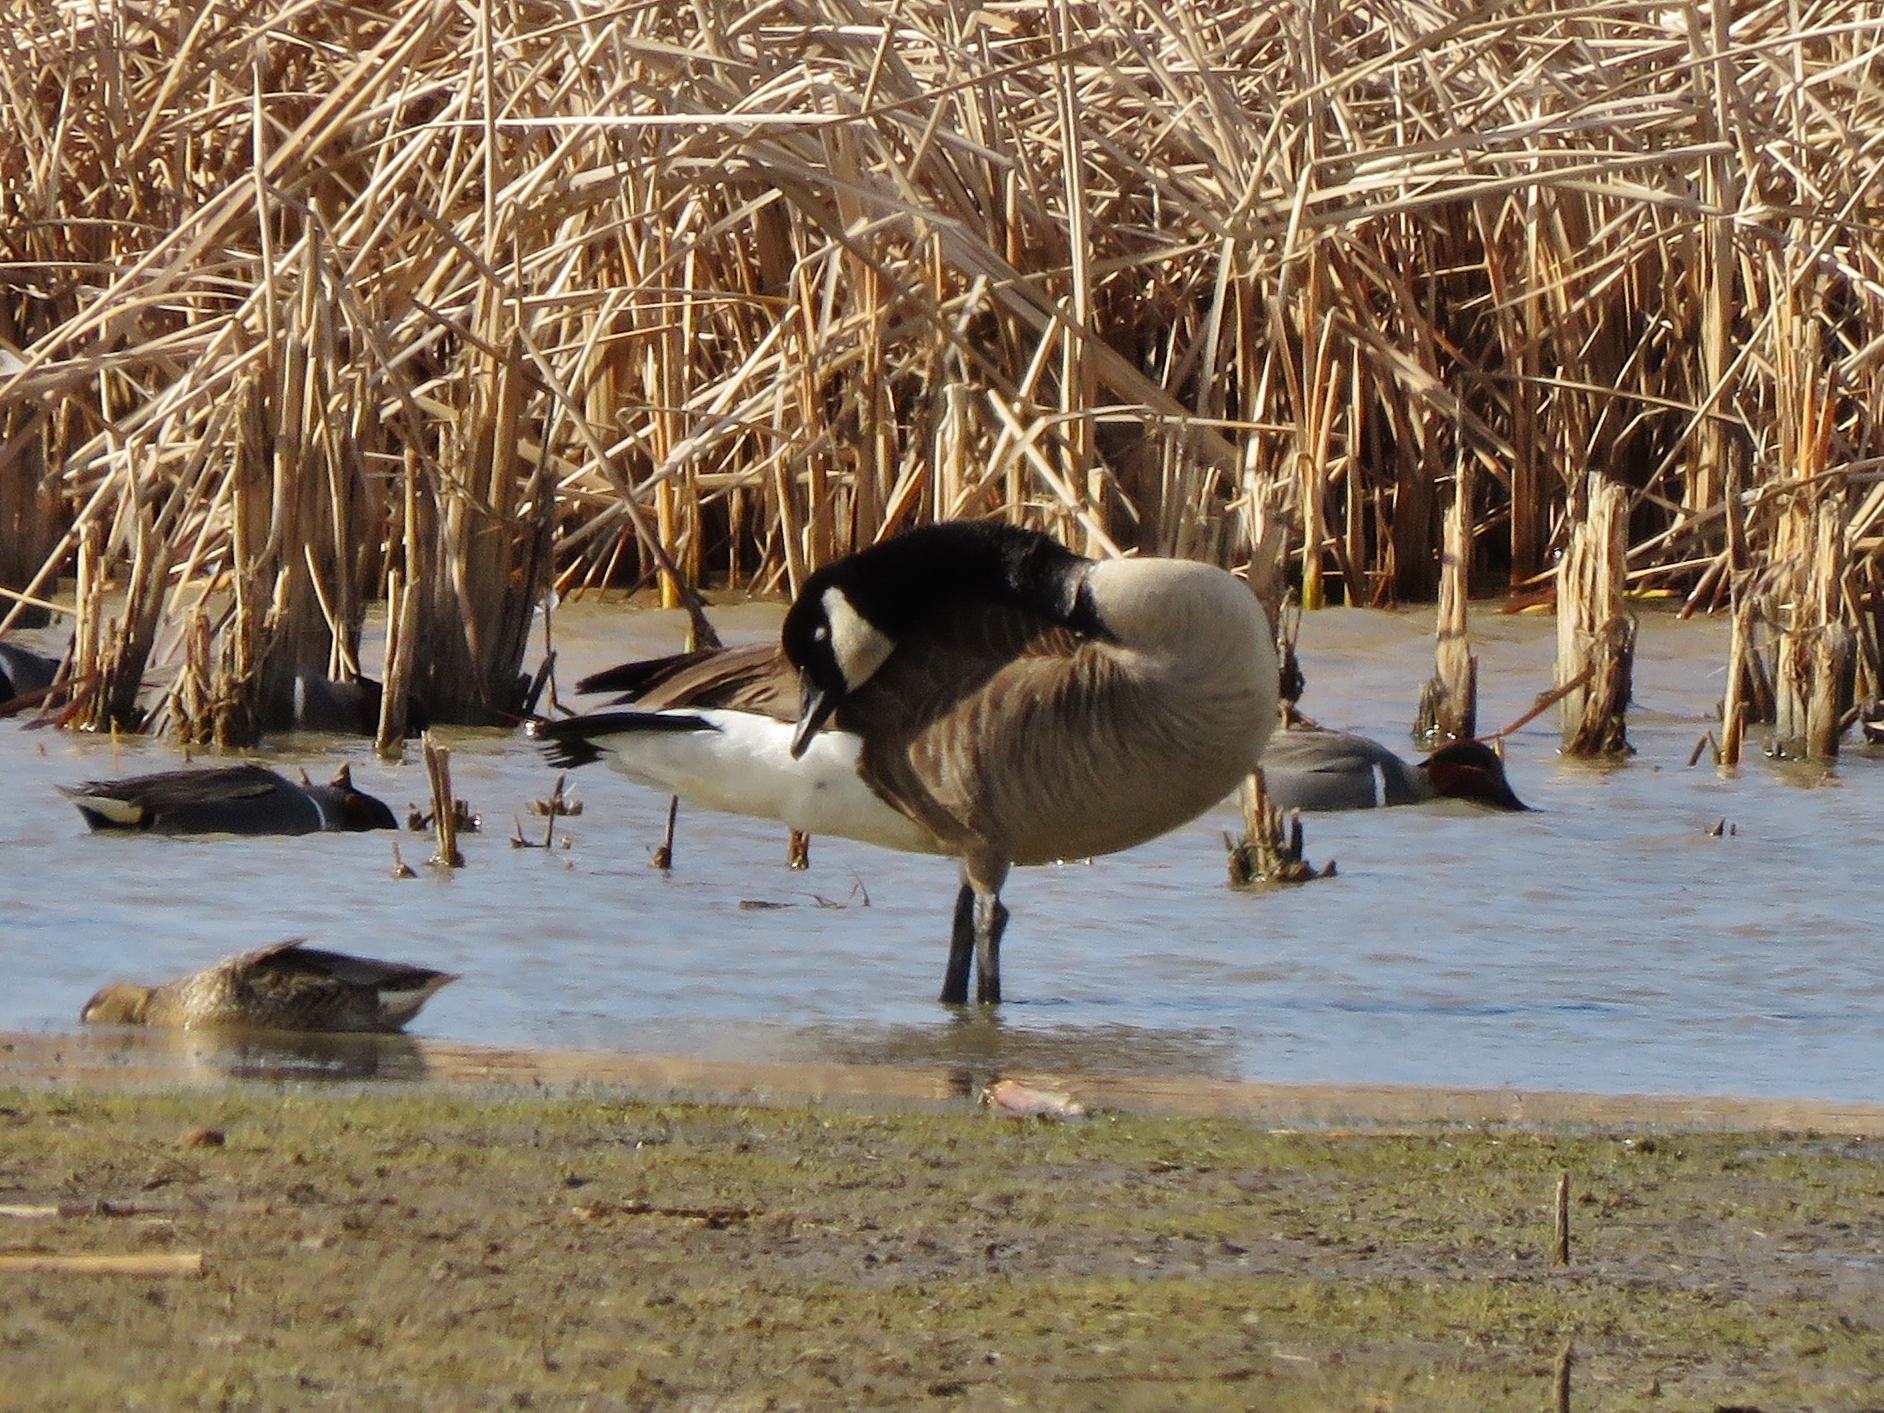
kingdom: Animalia
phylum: Chordata
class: Aves
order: Anseriformes
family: Anatidae
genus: Branta
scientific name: Branta canadensis
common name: Canada goose
